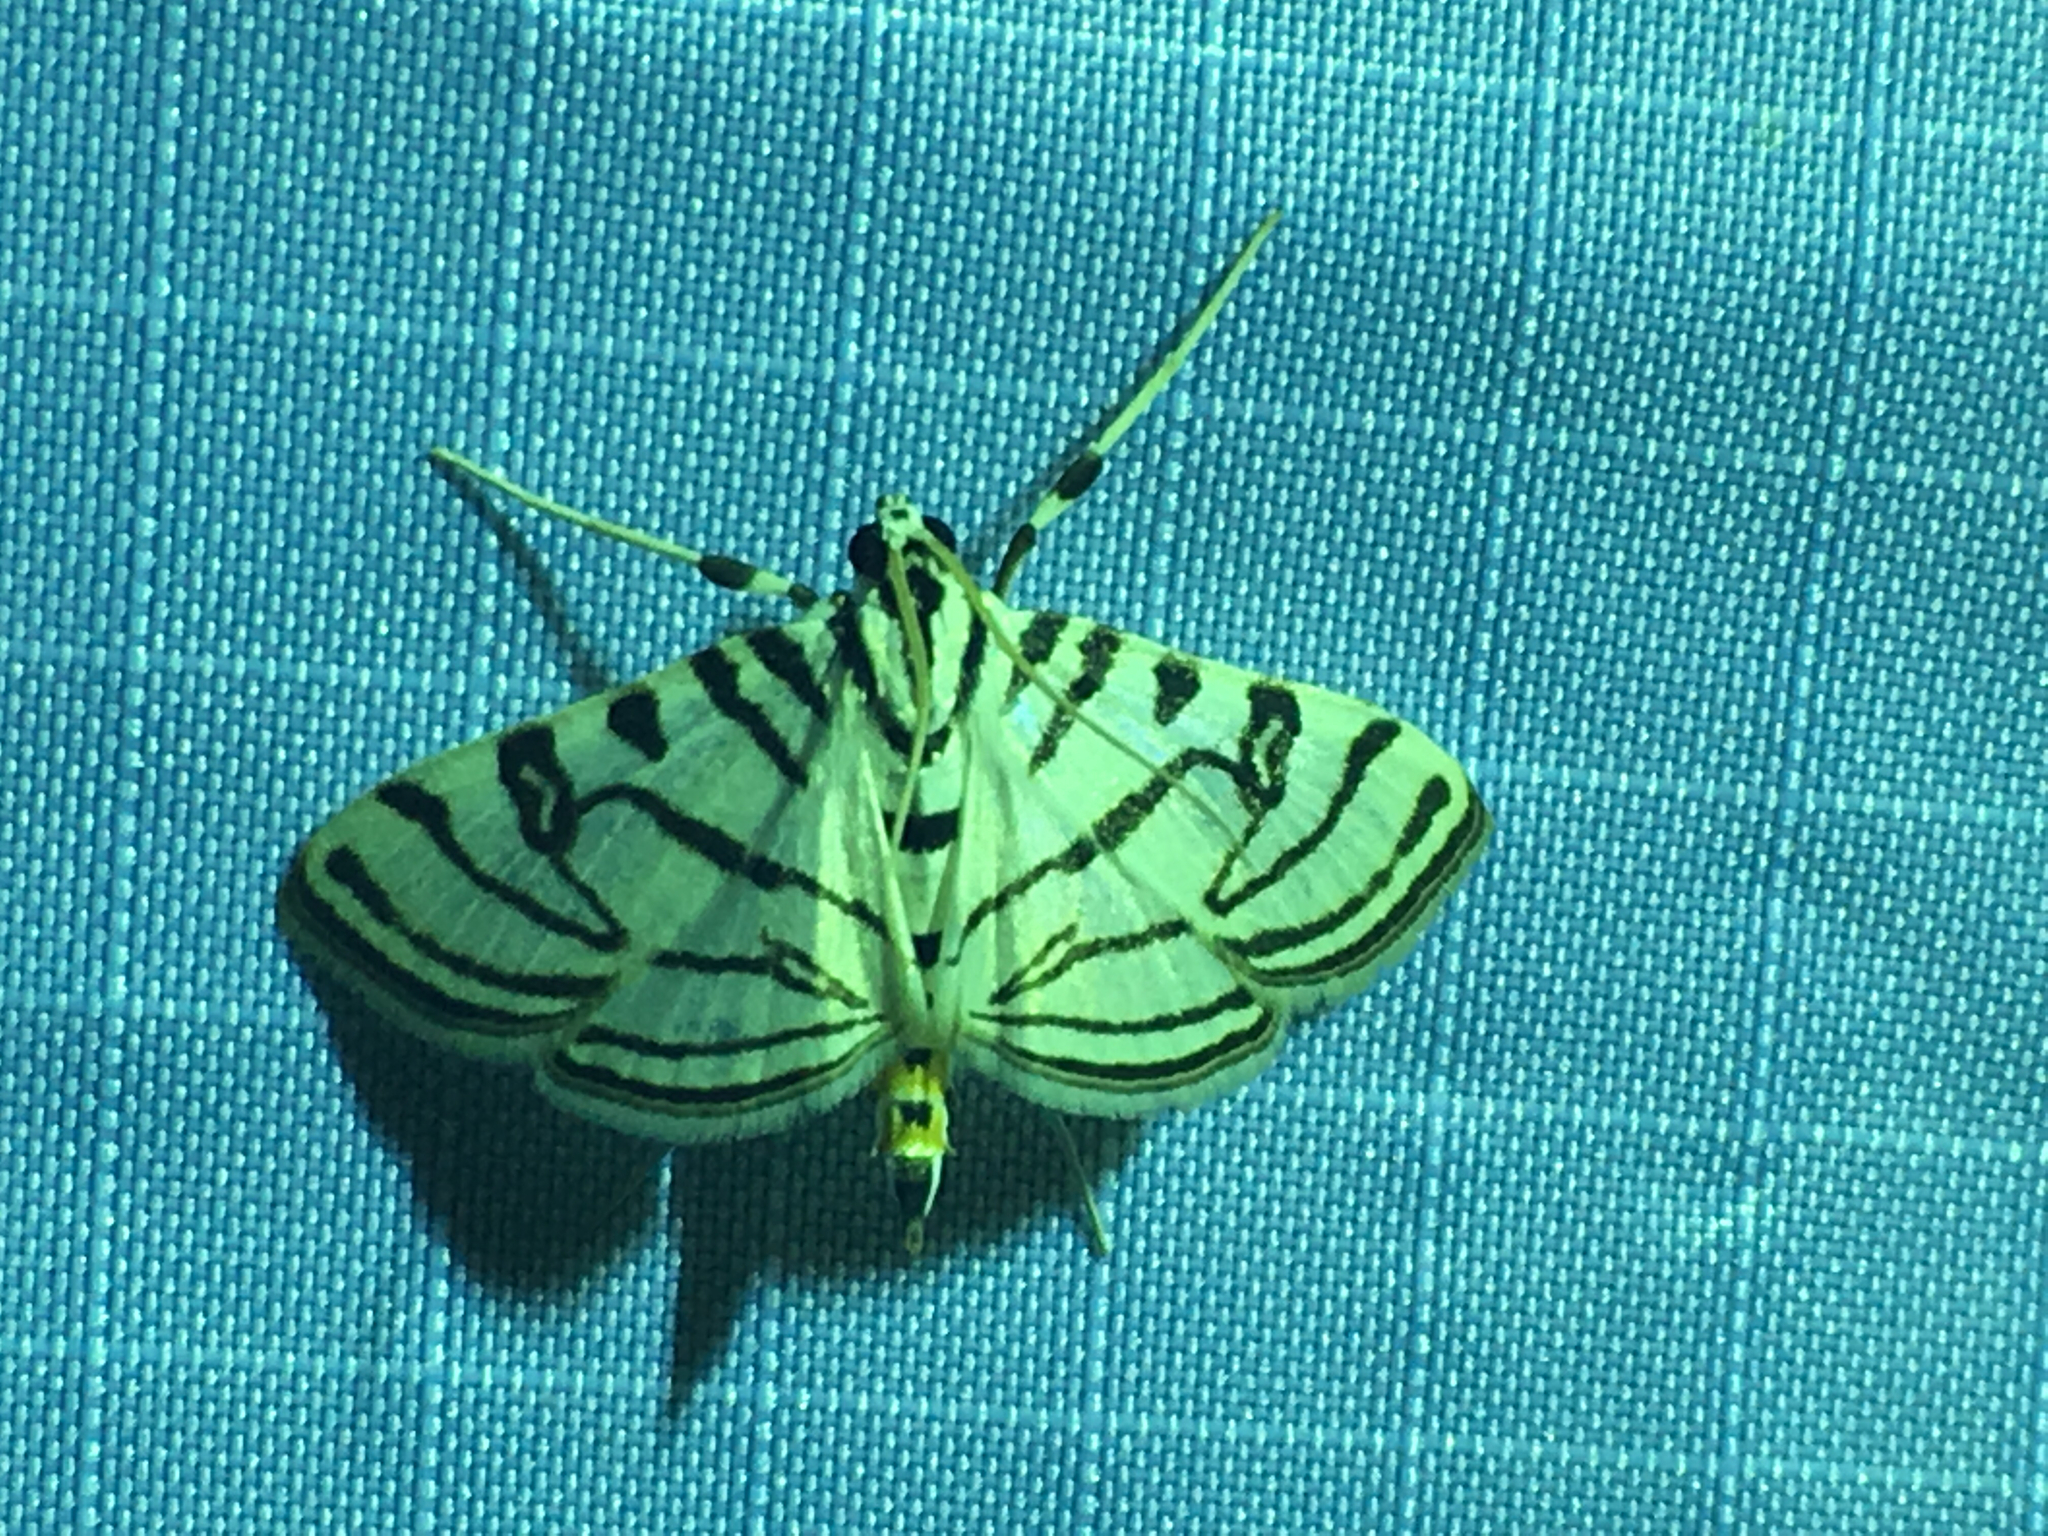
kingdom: Animalia
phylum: Arthropoda
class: Insecta
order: Lepidoptera
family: Crambidae
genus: Conchylodes
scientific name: Conchylodes ovulalis
